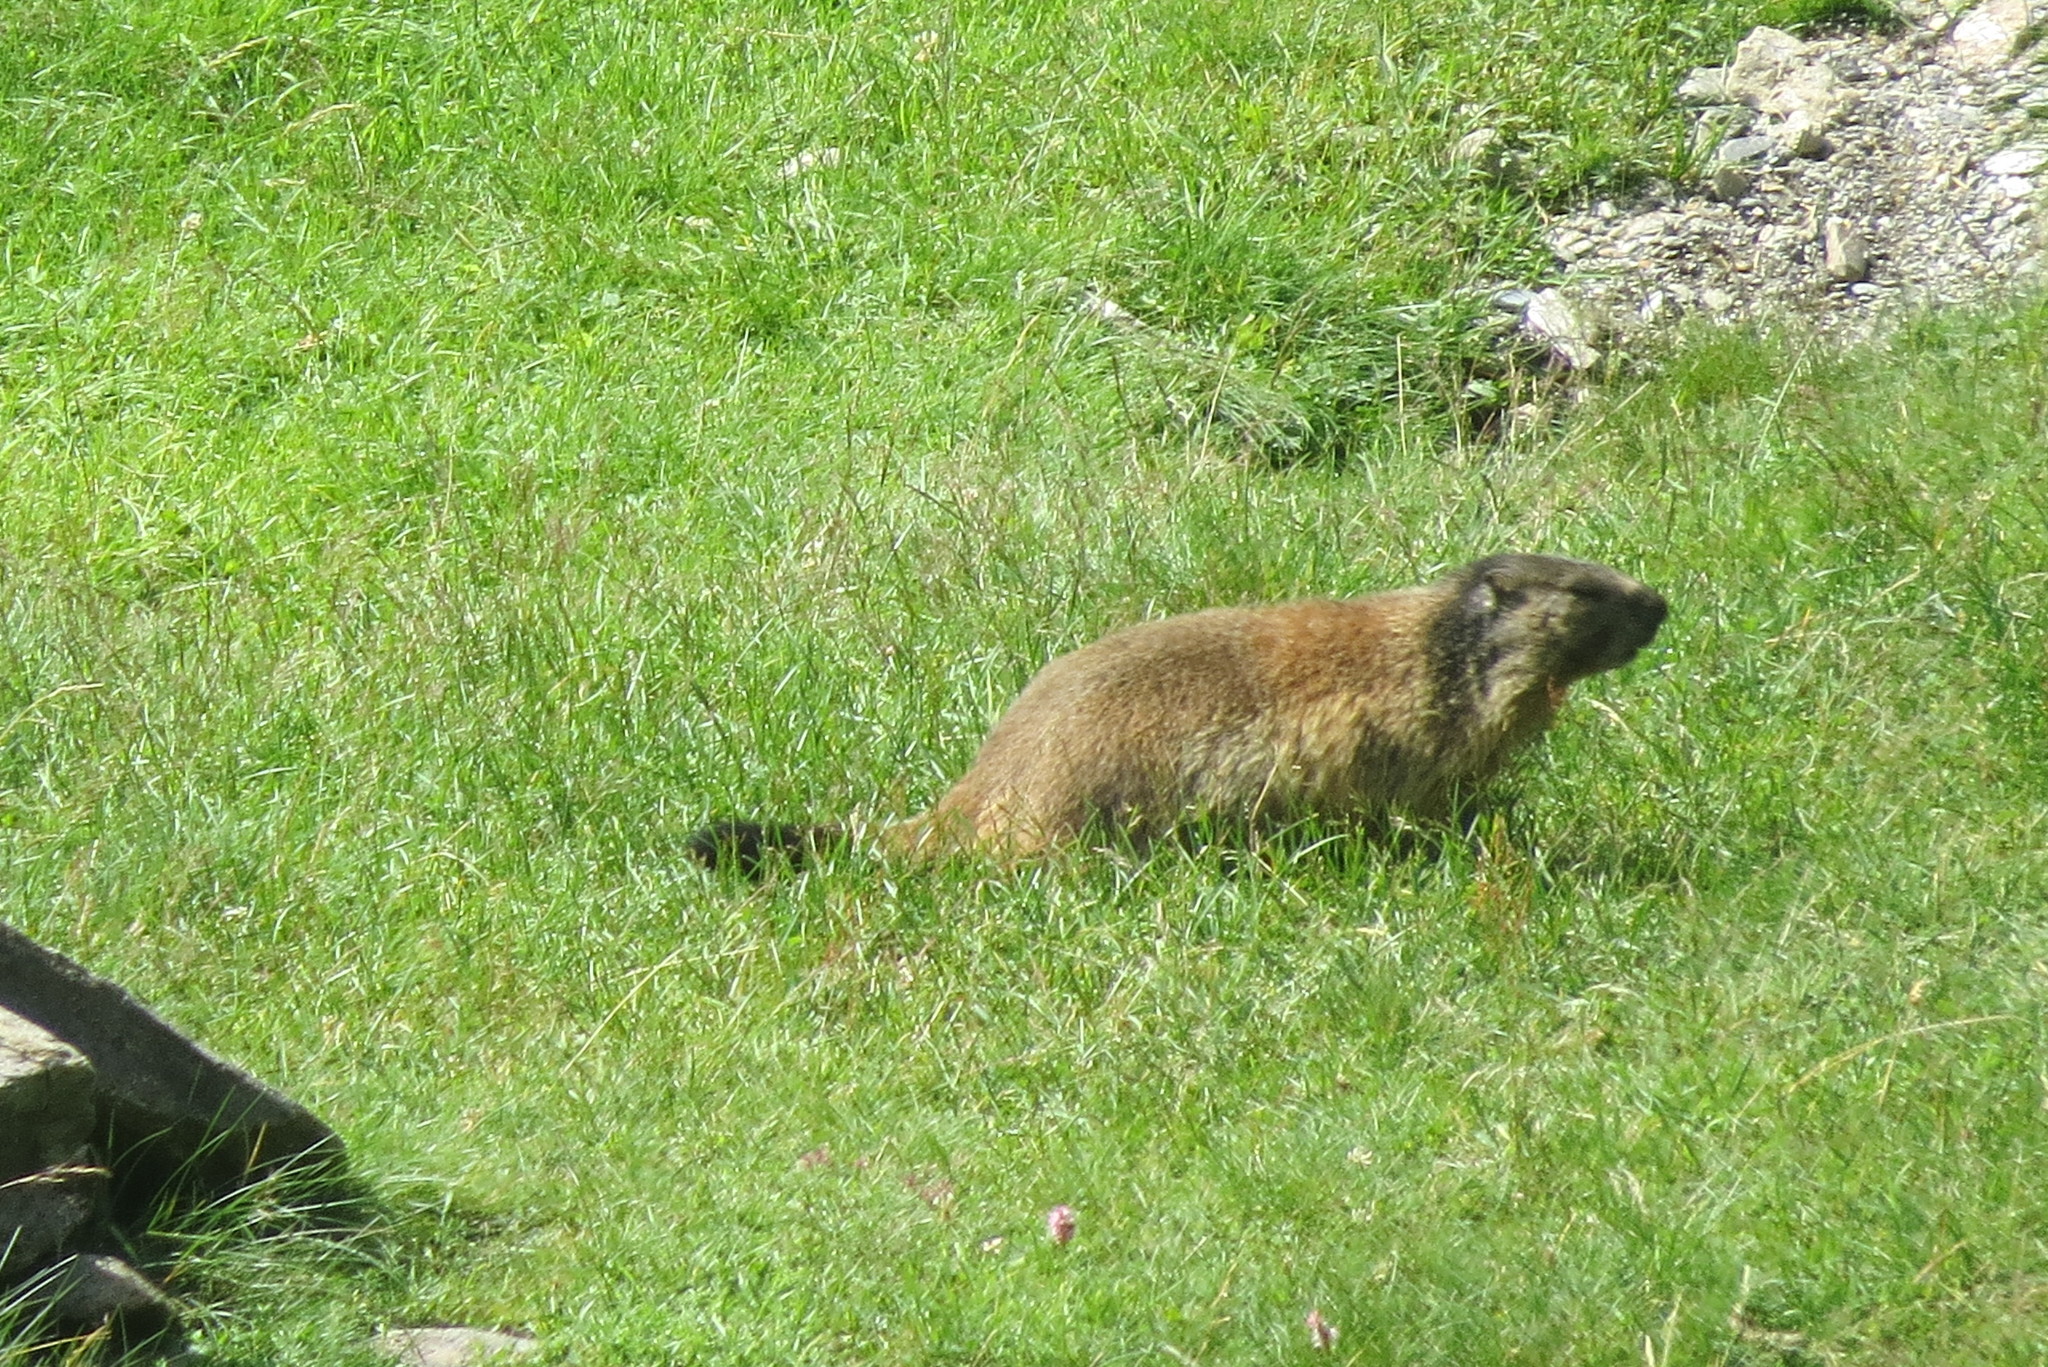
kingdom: Animalia
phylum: Chordata
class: Mammalia
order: Rodentia
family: Sciuridae
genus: Marmota
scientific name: Marmota marmota
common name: Alpine marmot
